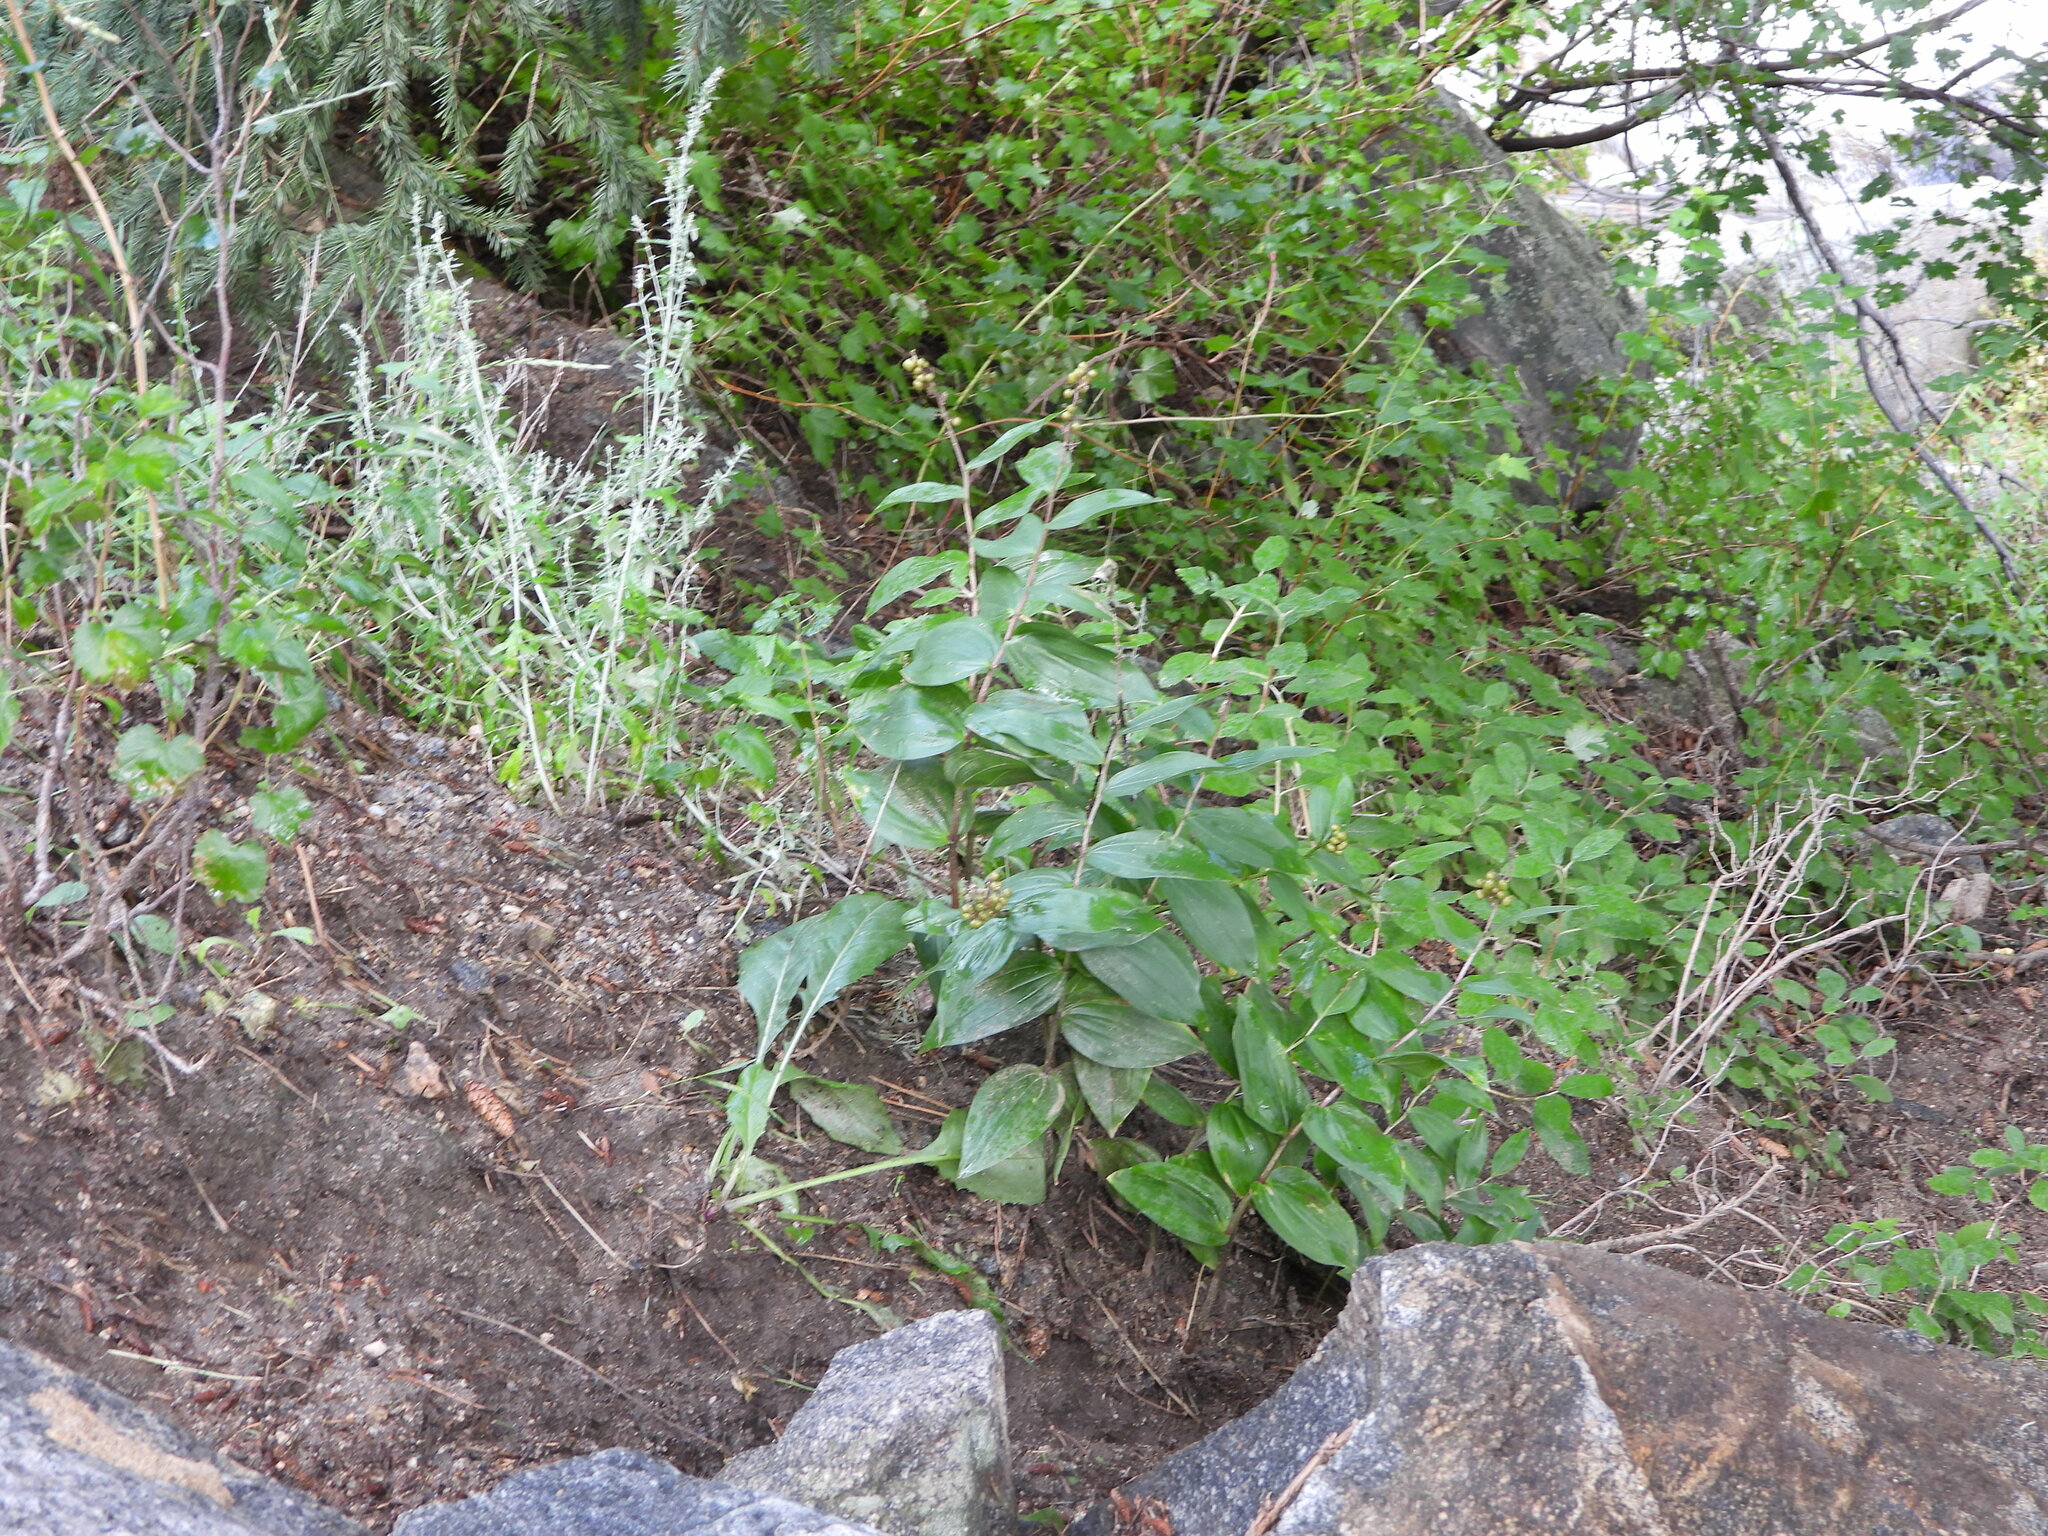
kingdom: Plantae
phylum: Tracheophyta
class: Liliopsida
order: Asparagales
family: Asparagaceae
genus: Maianthemum
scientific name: Maianthemum racemosum
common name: False spikenard
